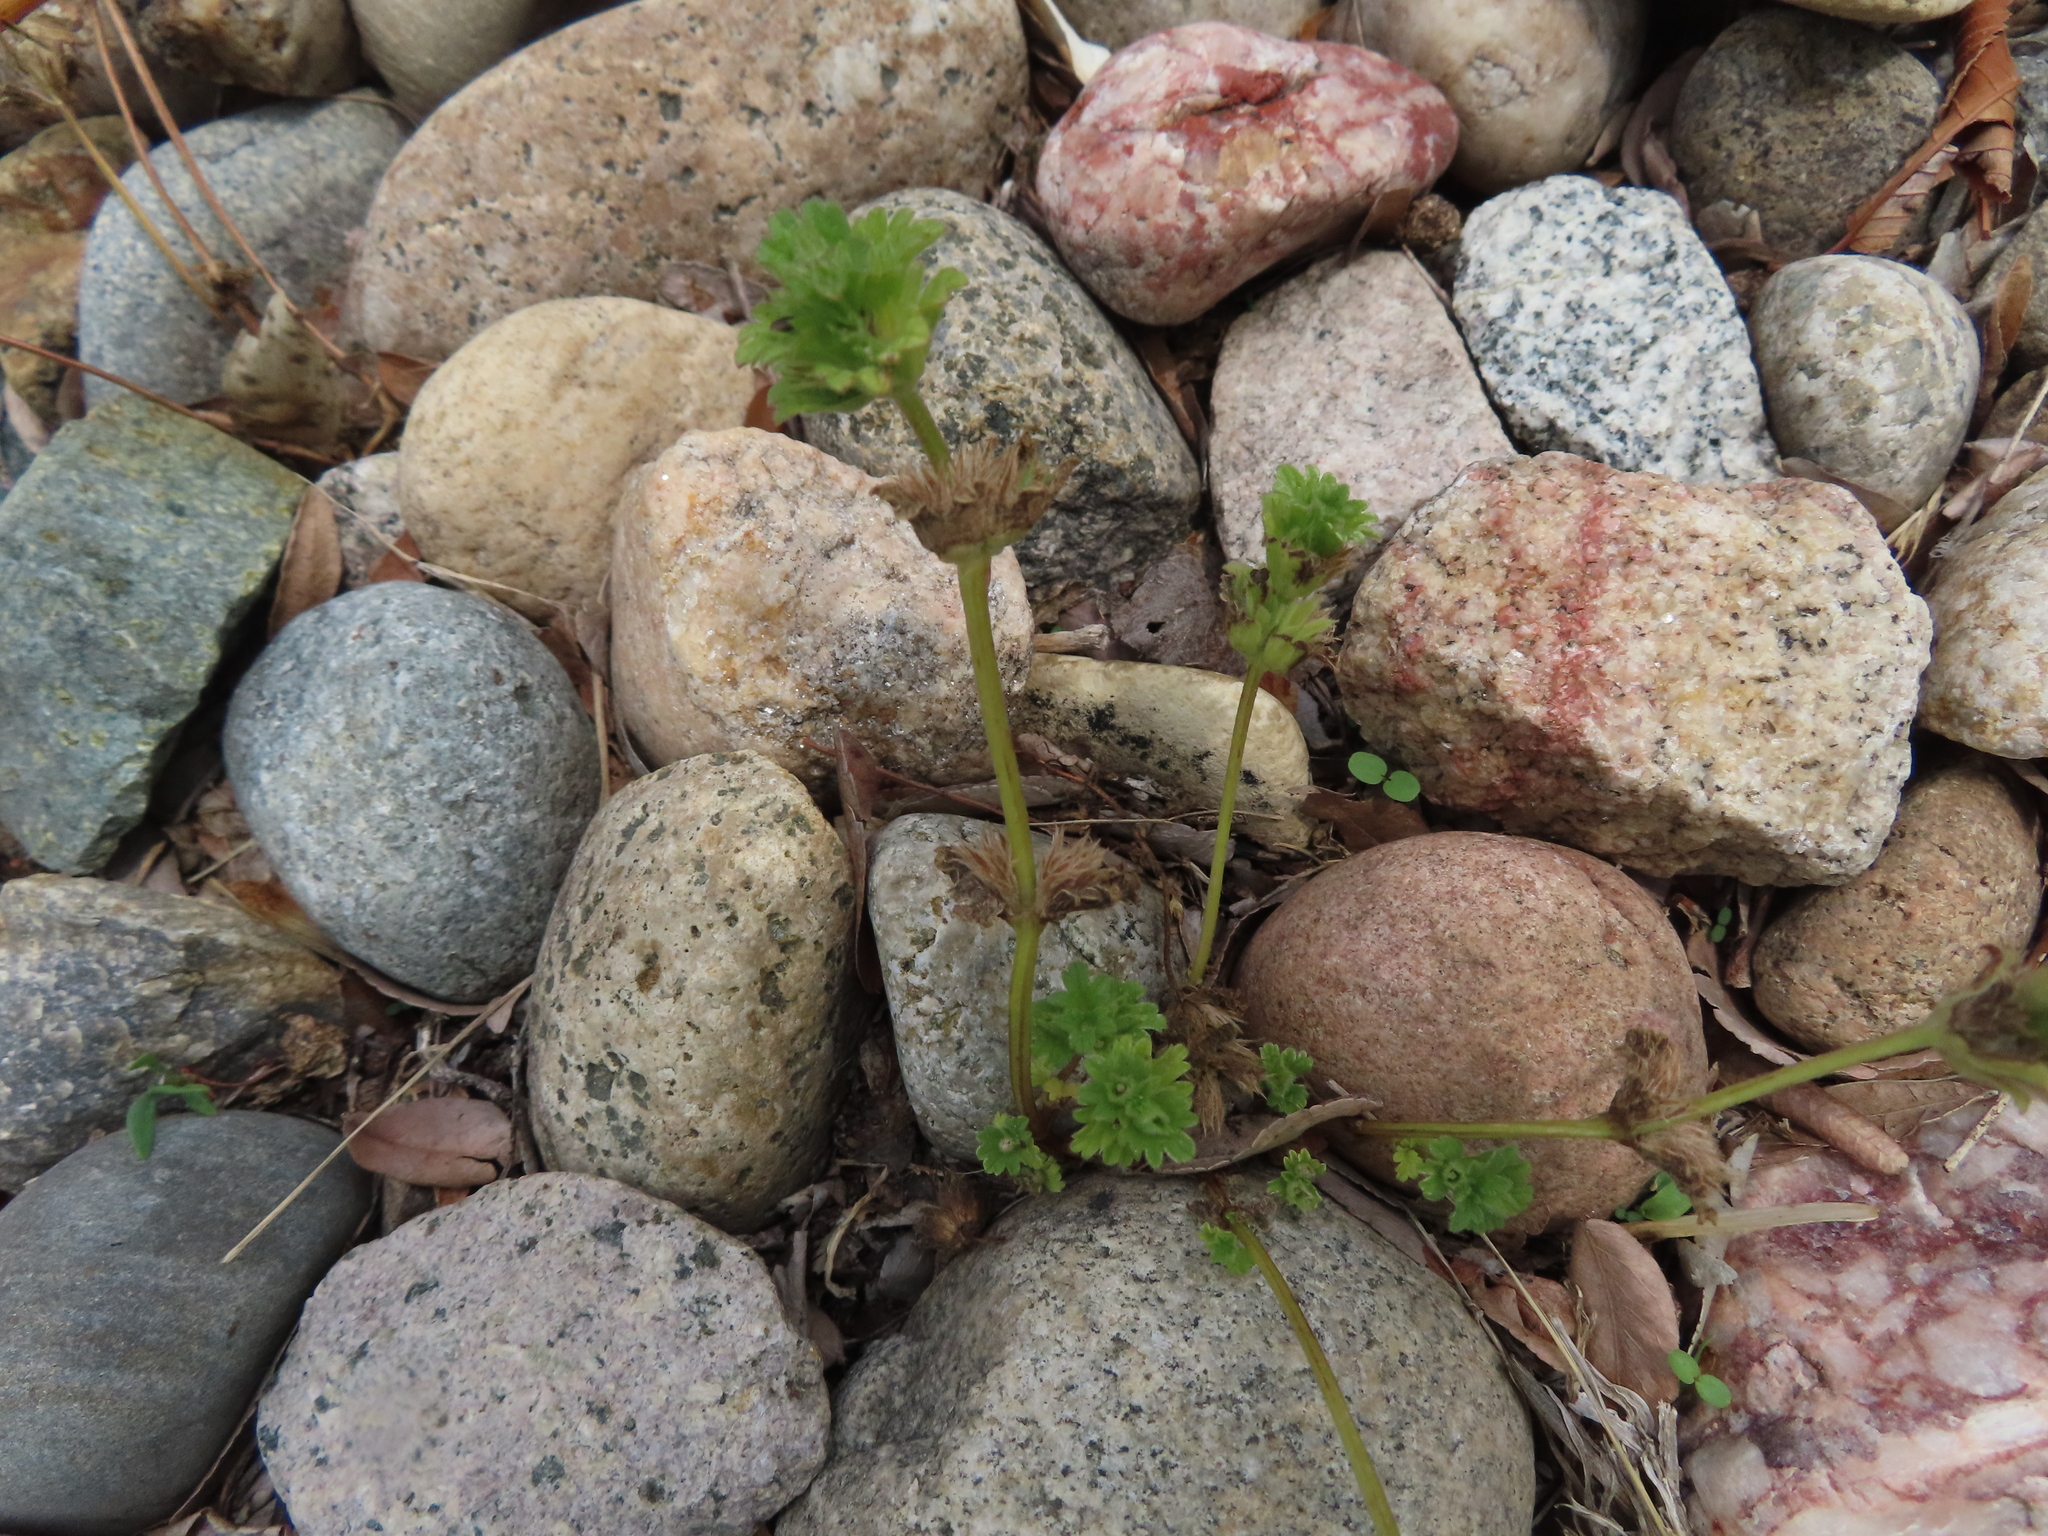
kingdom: Plantae
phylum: Tracheophyta
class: Magnoliopsida
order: Lamiales
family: Lamiaceae
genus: Lamium
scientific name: Lamium amplexicaule
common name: Henbit dead-nettle
